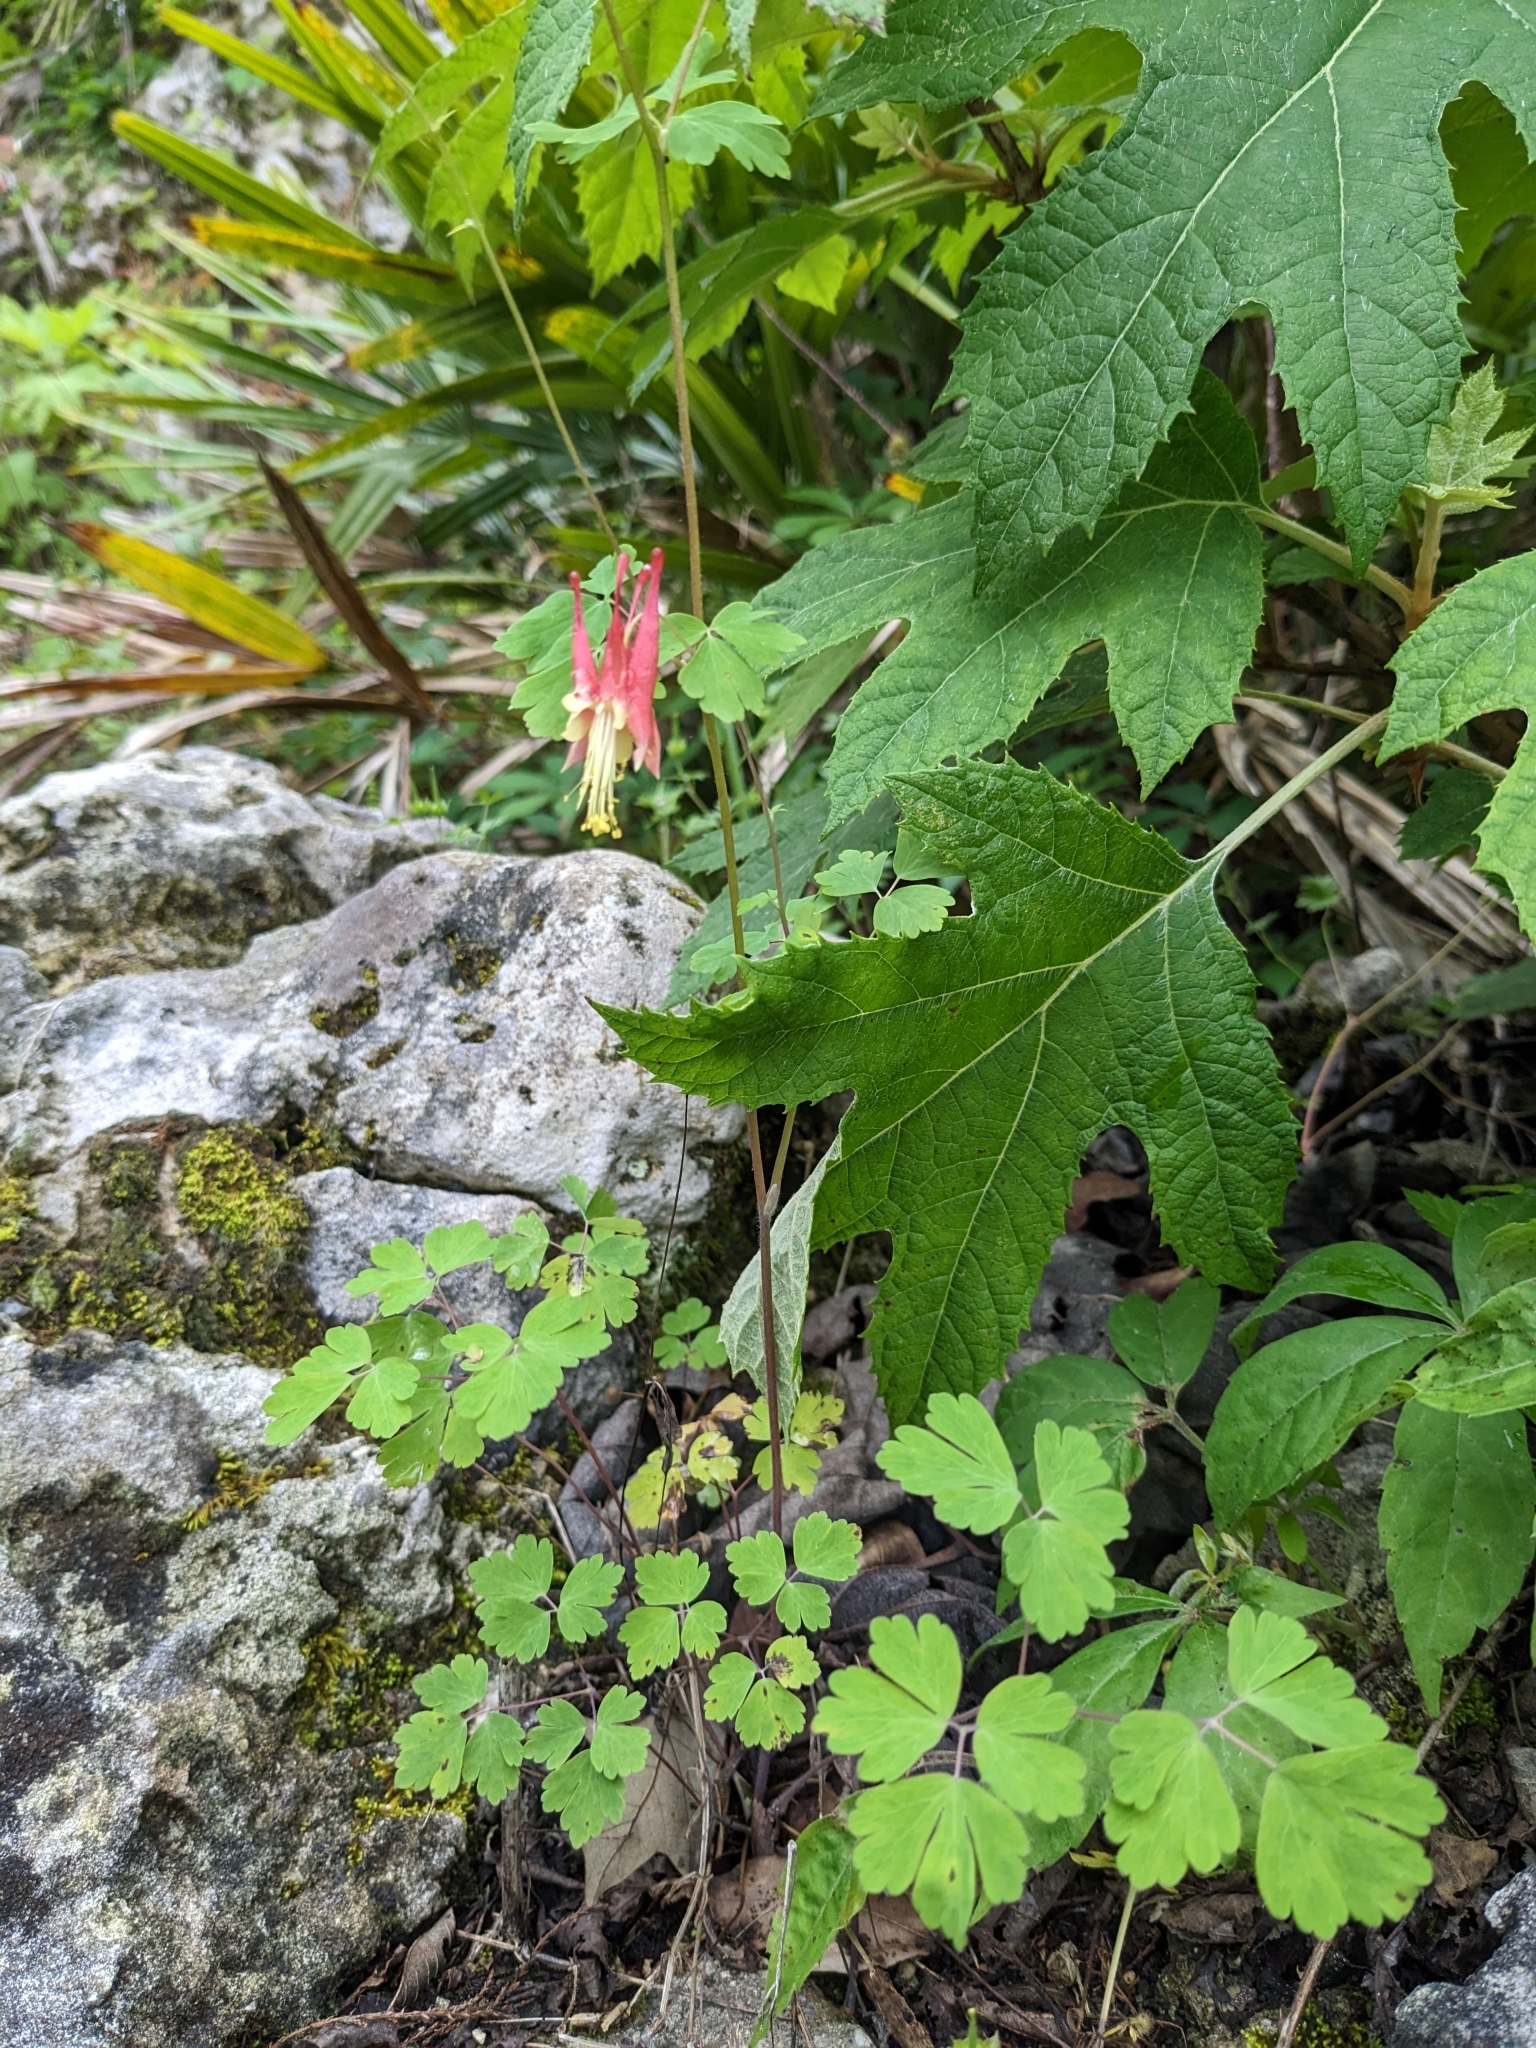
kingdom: Plantae
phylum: Tracheophyta
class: Magnoliopsida
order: Ranunculales
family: Ranunculaceae
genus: Aquilegia
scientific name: Aquilegia canadensis
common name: American columbine
